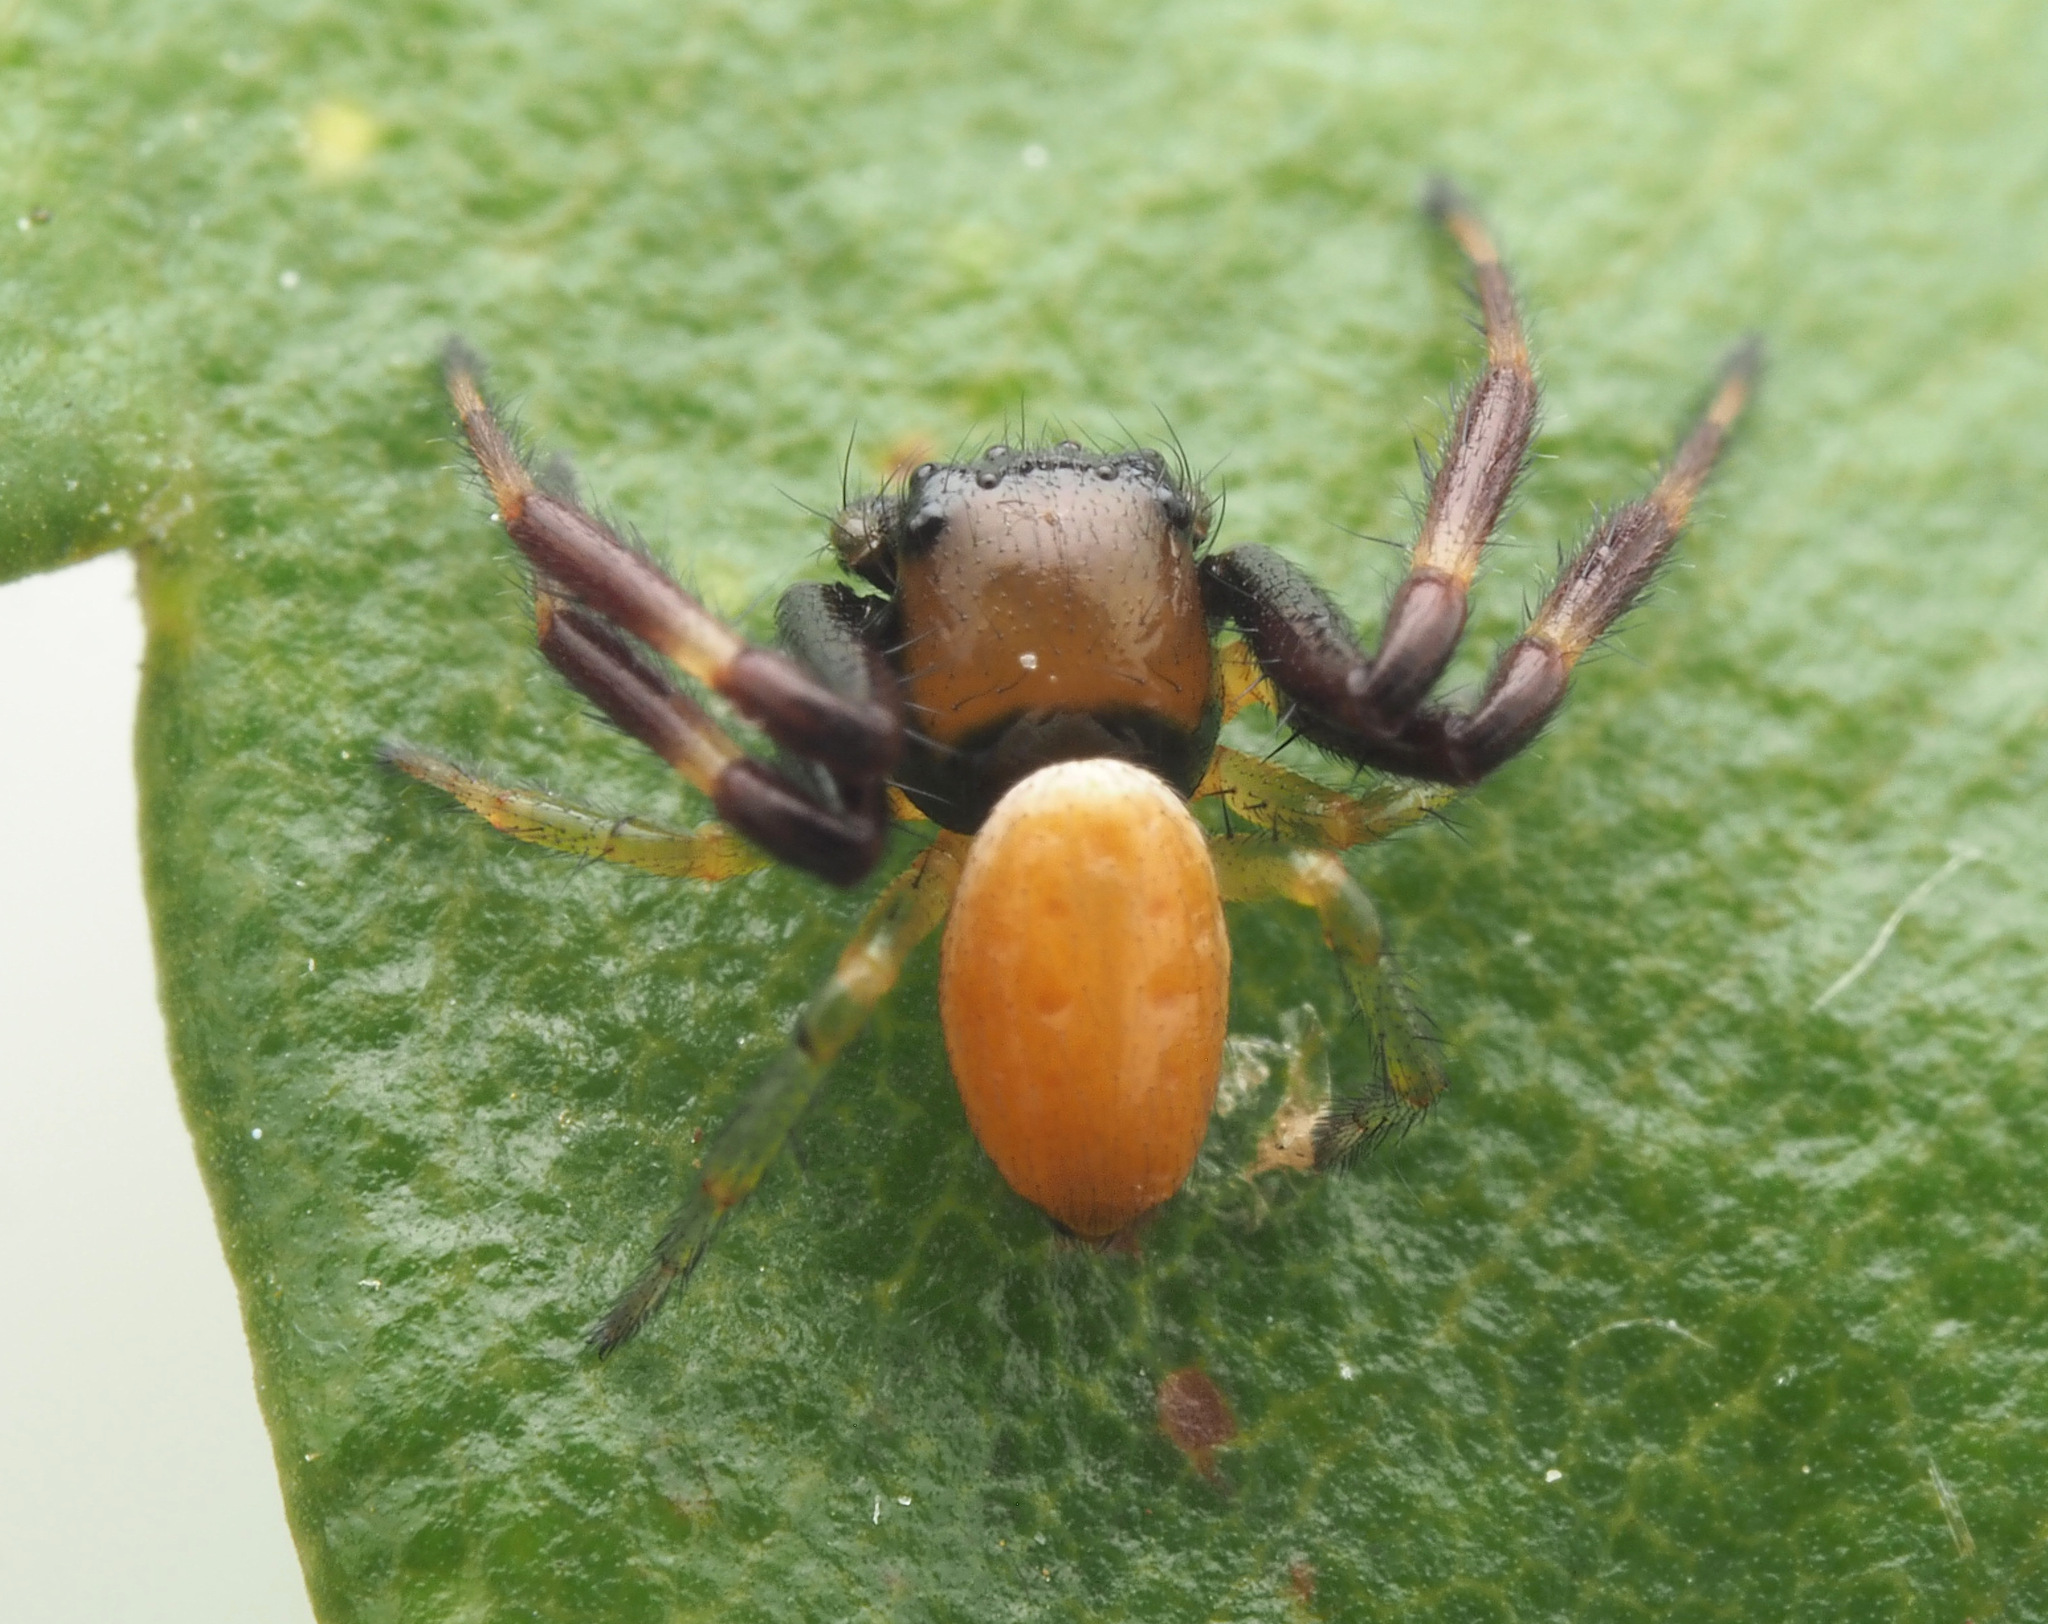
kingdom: Animalia
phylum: Arthropoda
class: Arachnida
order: Araneae
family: Thomisidae
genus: Tharpyna
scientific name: Tharpyna venusta
